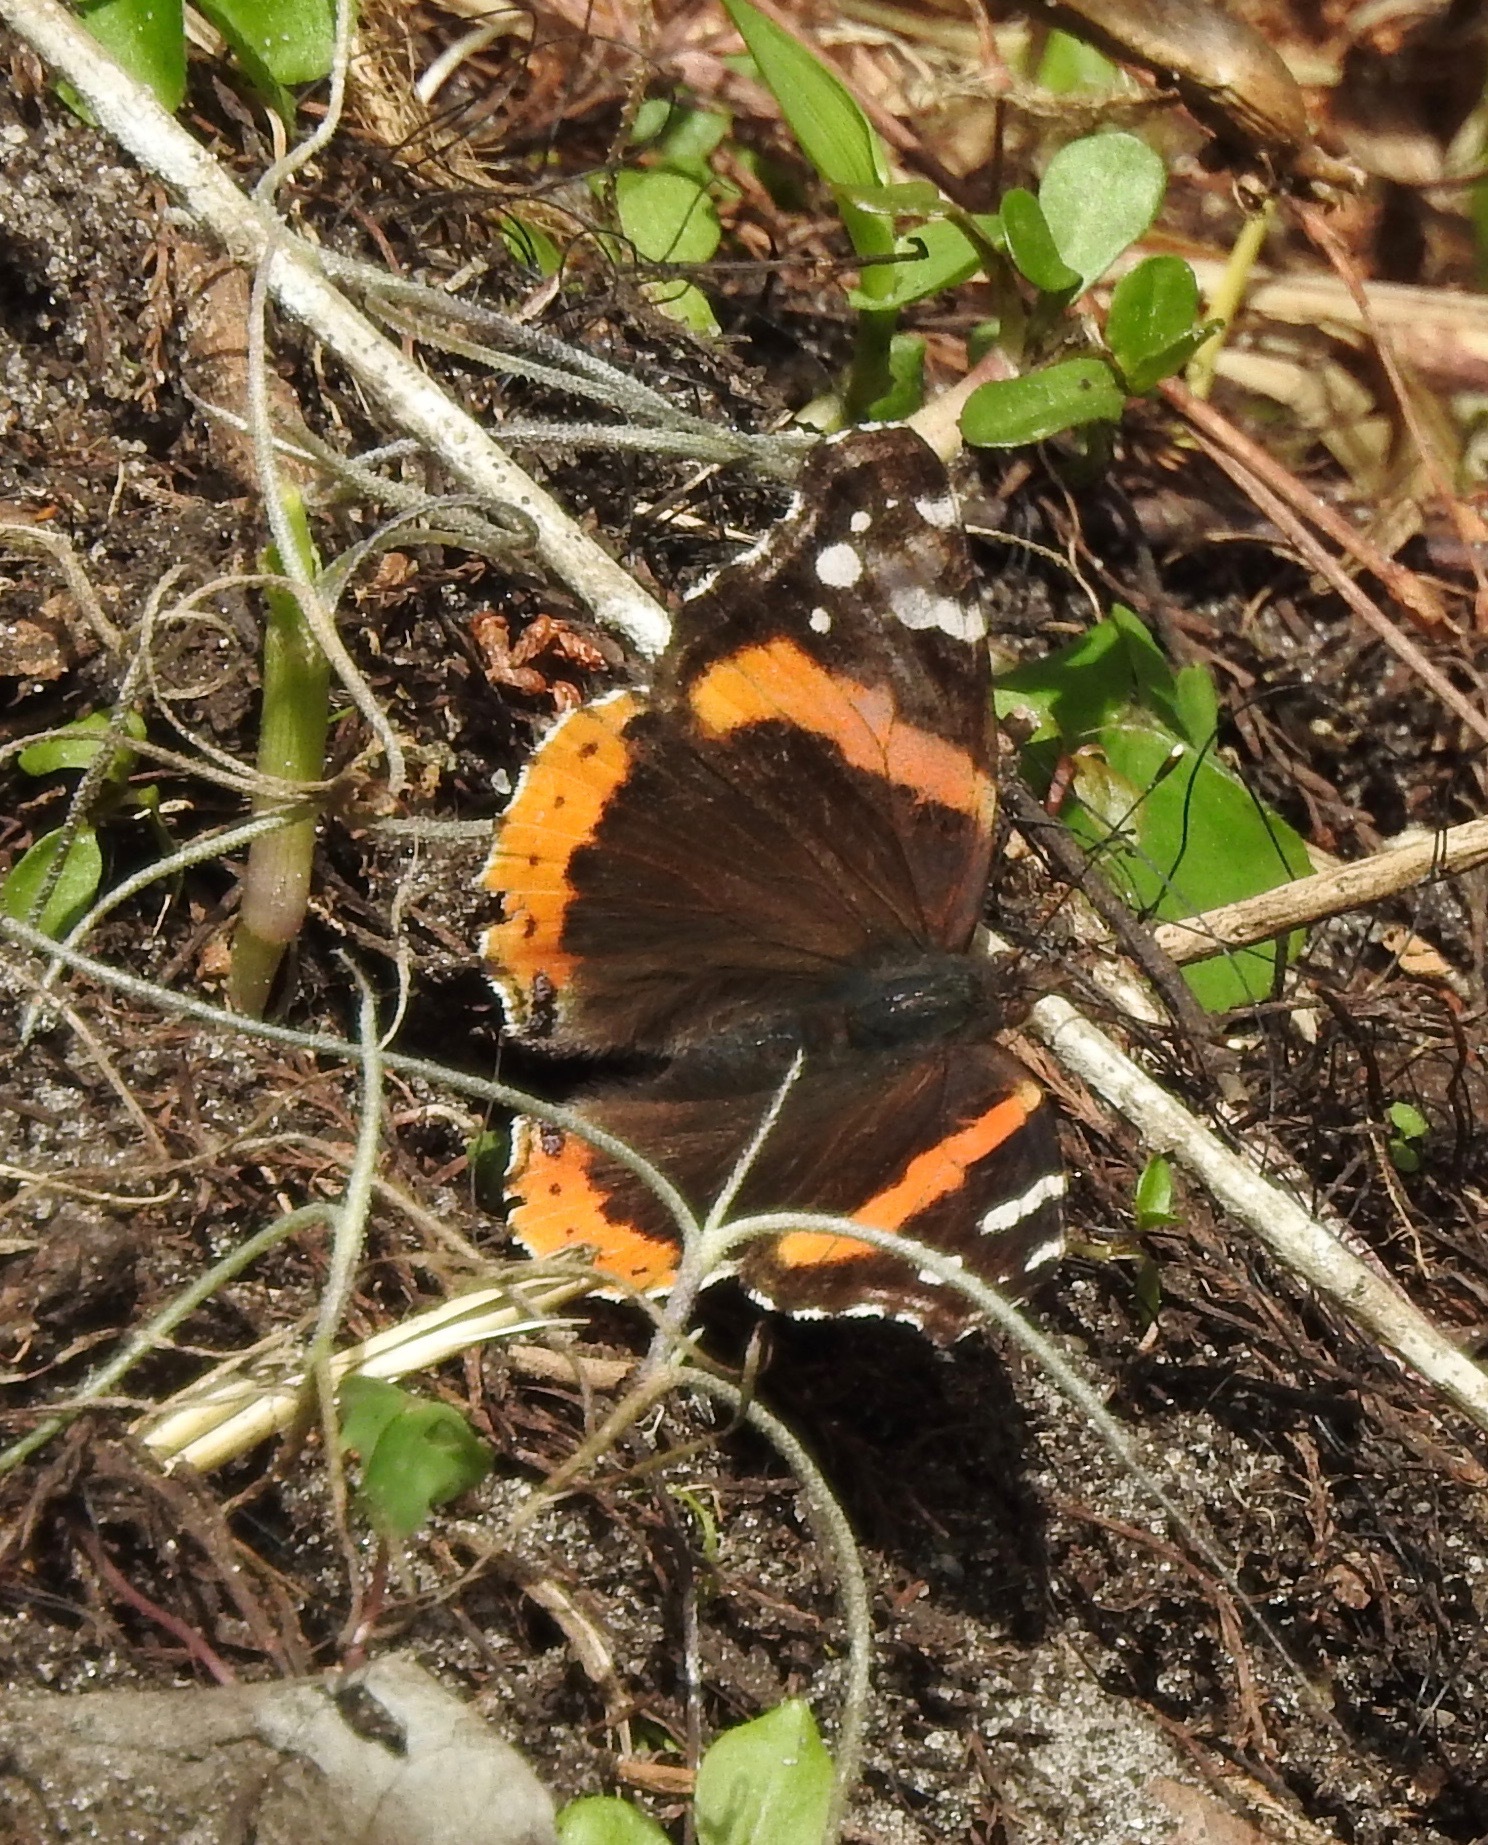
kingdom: Animalia
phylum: Arthropoda
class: Insecta
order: Lepidoptera
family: Nymphalidae
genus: Vanessa
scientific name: Vanessa atalanta
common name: Red admiral
